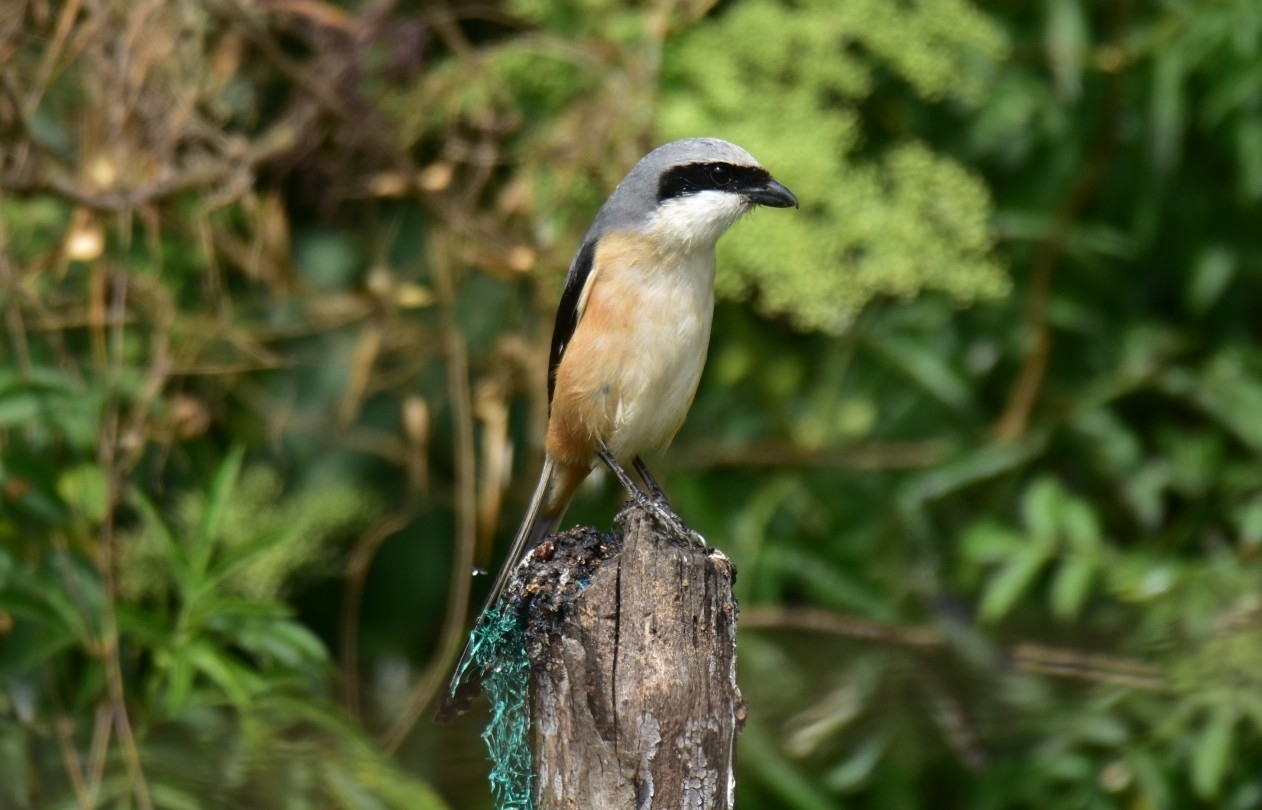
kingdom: Animalia
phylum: Chordata
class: Aves
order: Passeriformes
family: Laniidae
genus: Lanius
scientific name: Lanius schach
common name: Long-tailed shrike
